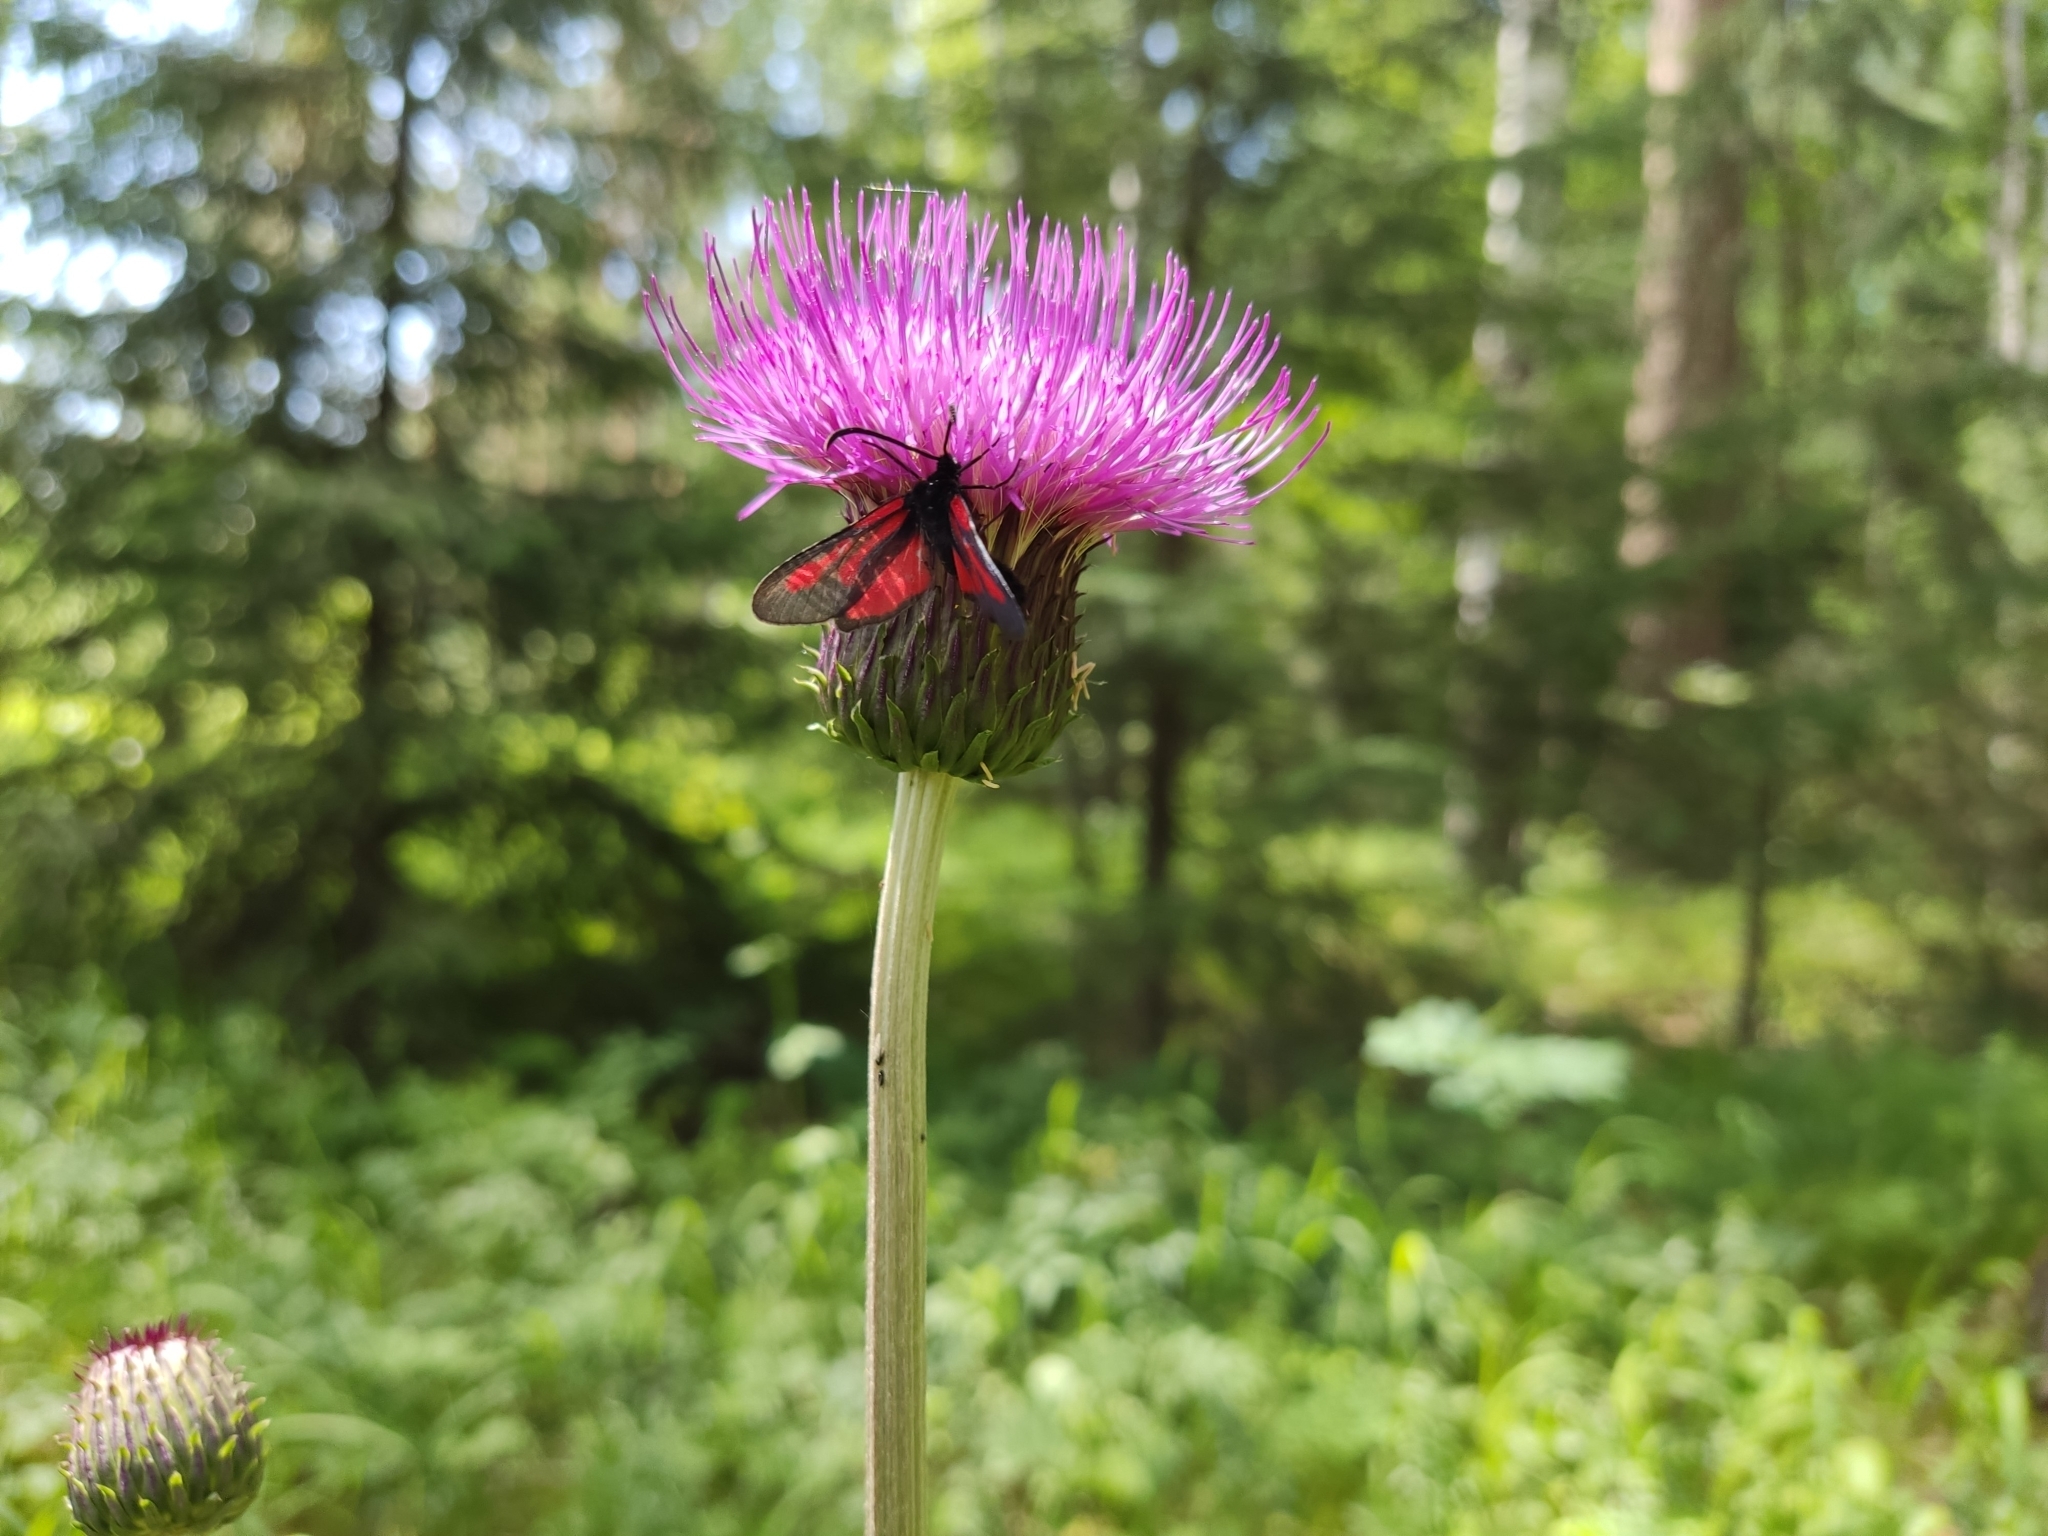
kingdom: Plantae
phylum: Tracheophyta
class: Magnoliopsida
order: Asterales
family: Asteraceae
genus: Cirsium
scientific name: Cirsium heterophyllum
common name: Melancholy thistle
